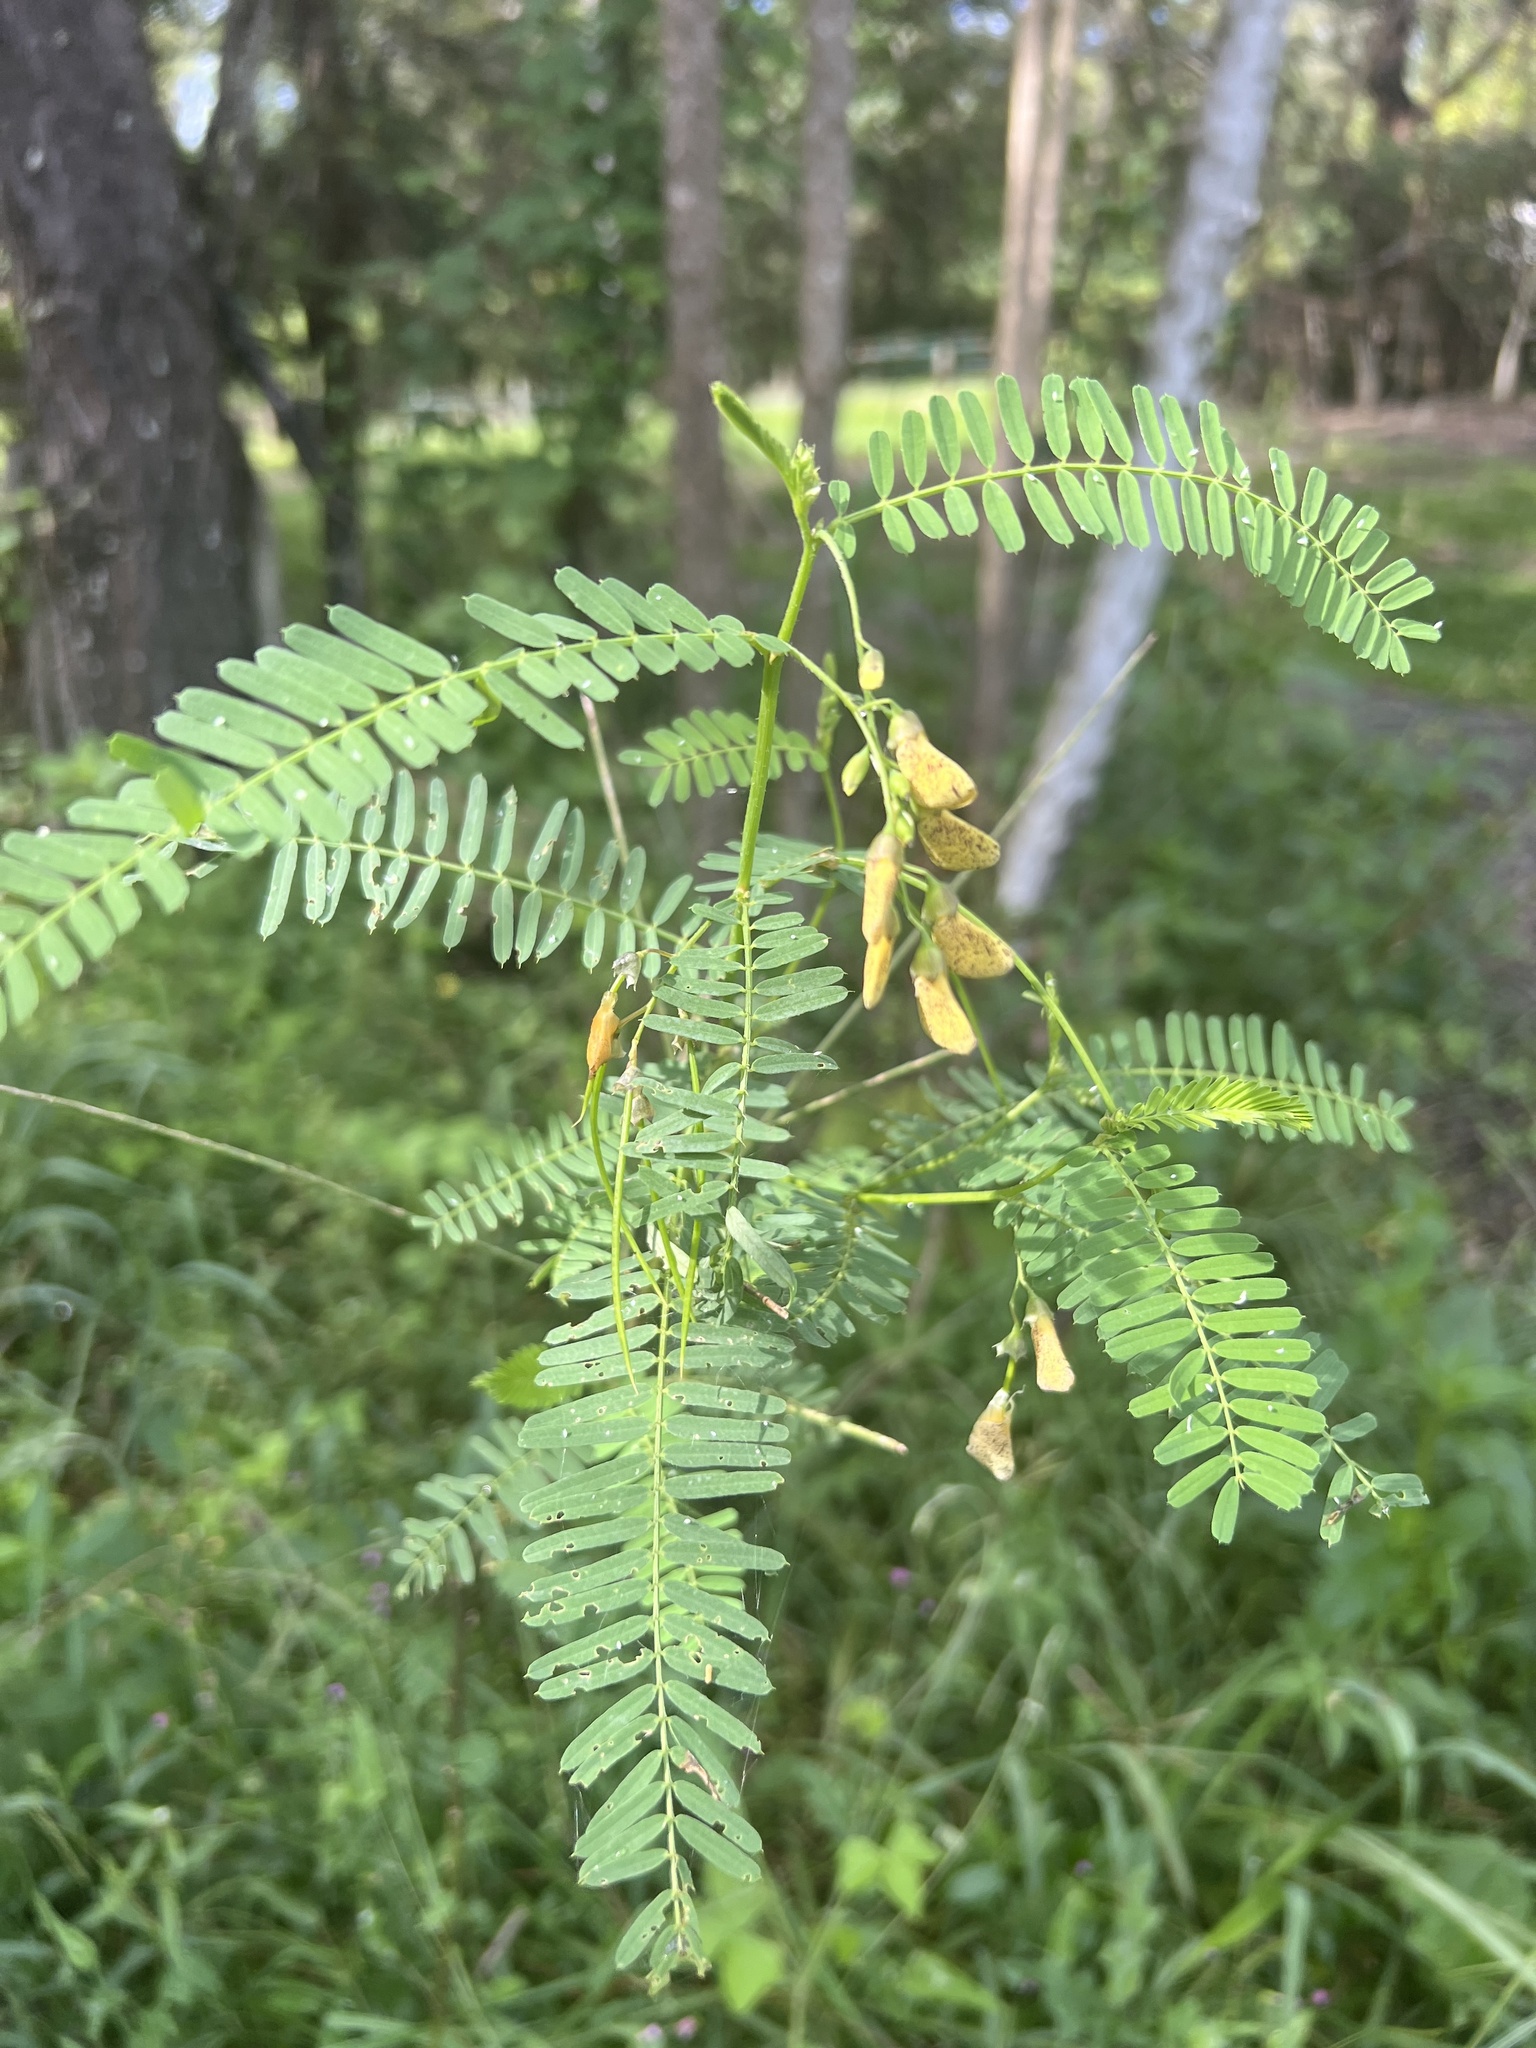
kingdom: Plantae
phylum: Tracheophyta
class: Magnoliopsida
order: Fabales
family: Fabaceae
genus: Sesbania
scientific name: Sesbania cannabina
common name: Canicha
